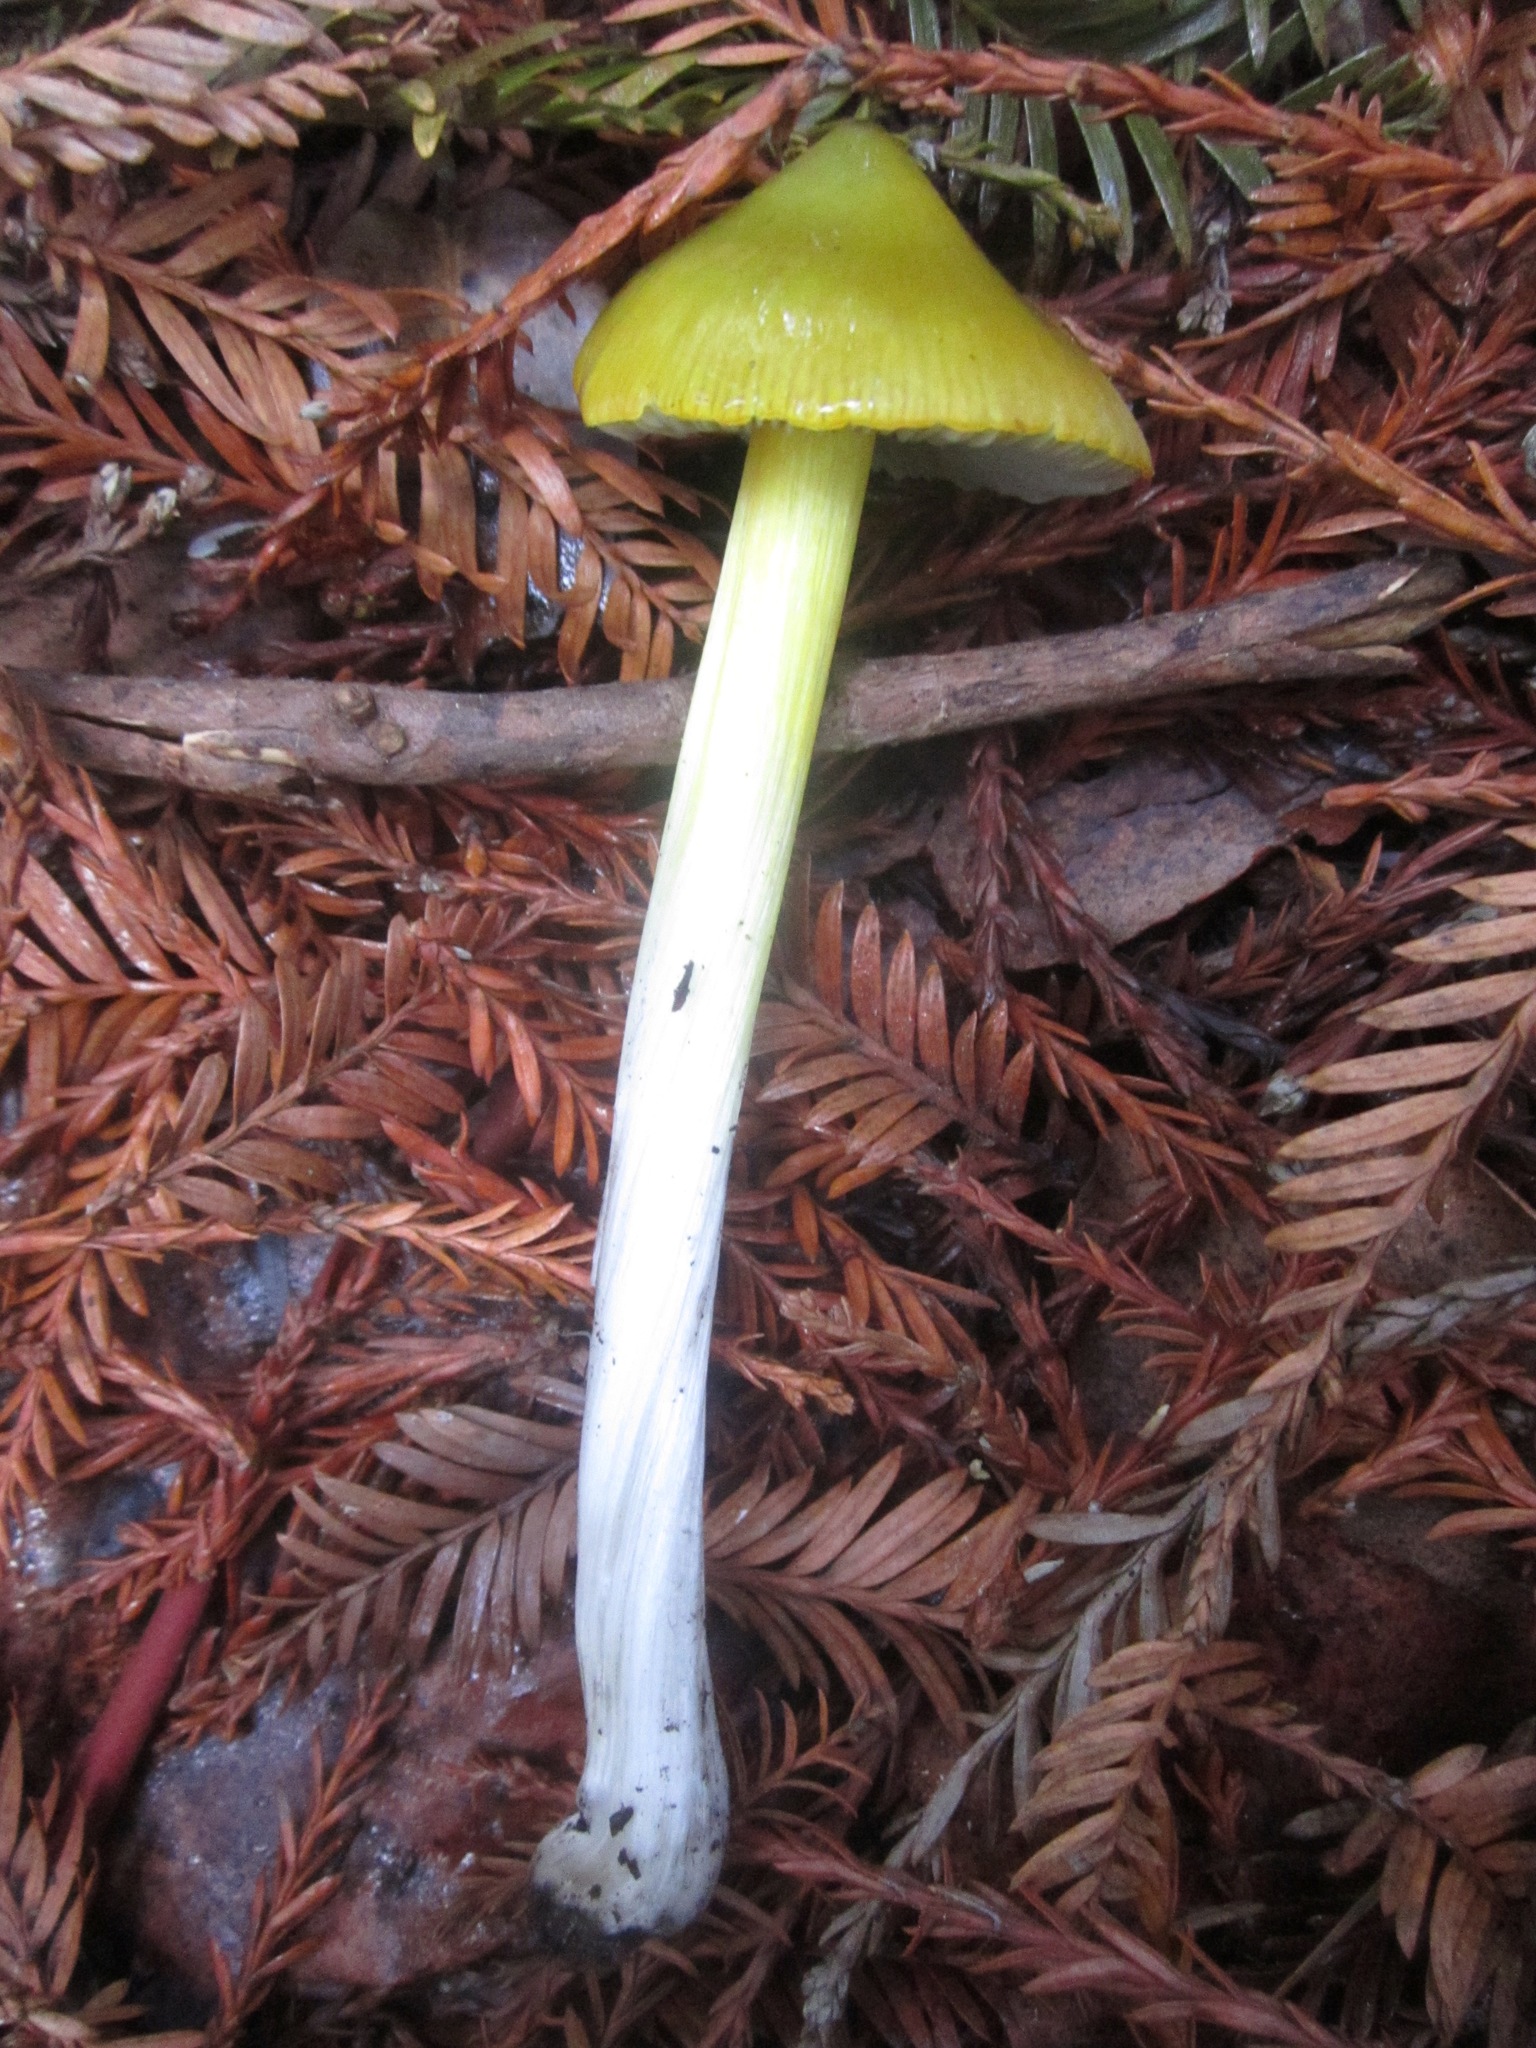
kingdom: Fungi
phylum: Basidiomycota
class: Agaricomycetes
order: Agaricales
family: Hygrophoraceae
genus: Hygrocybe
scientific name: Hygrocybe singeri
